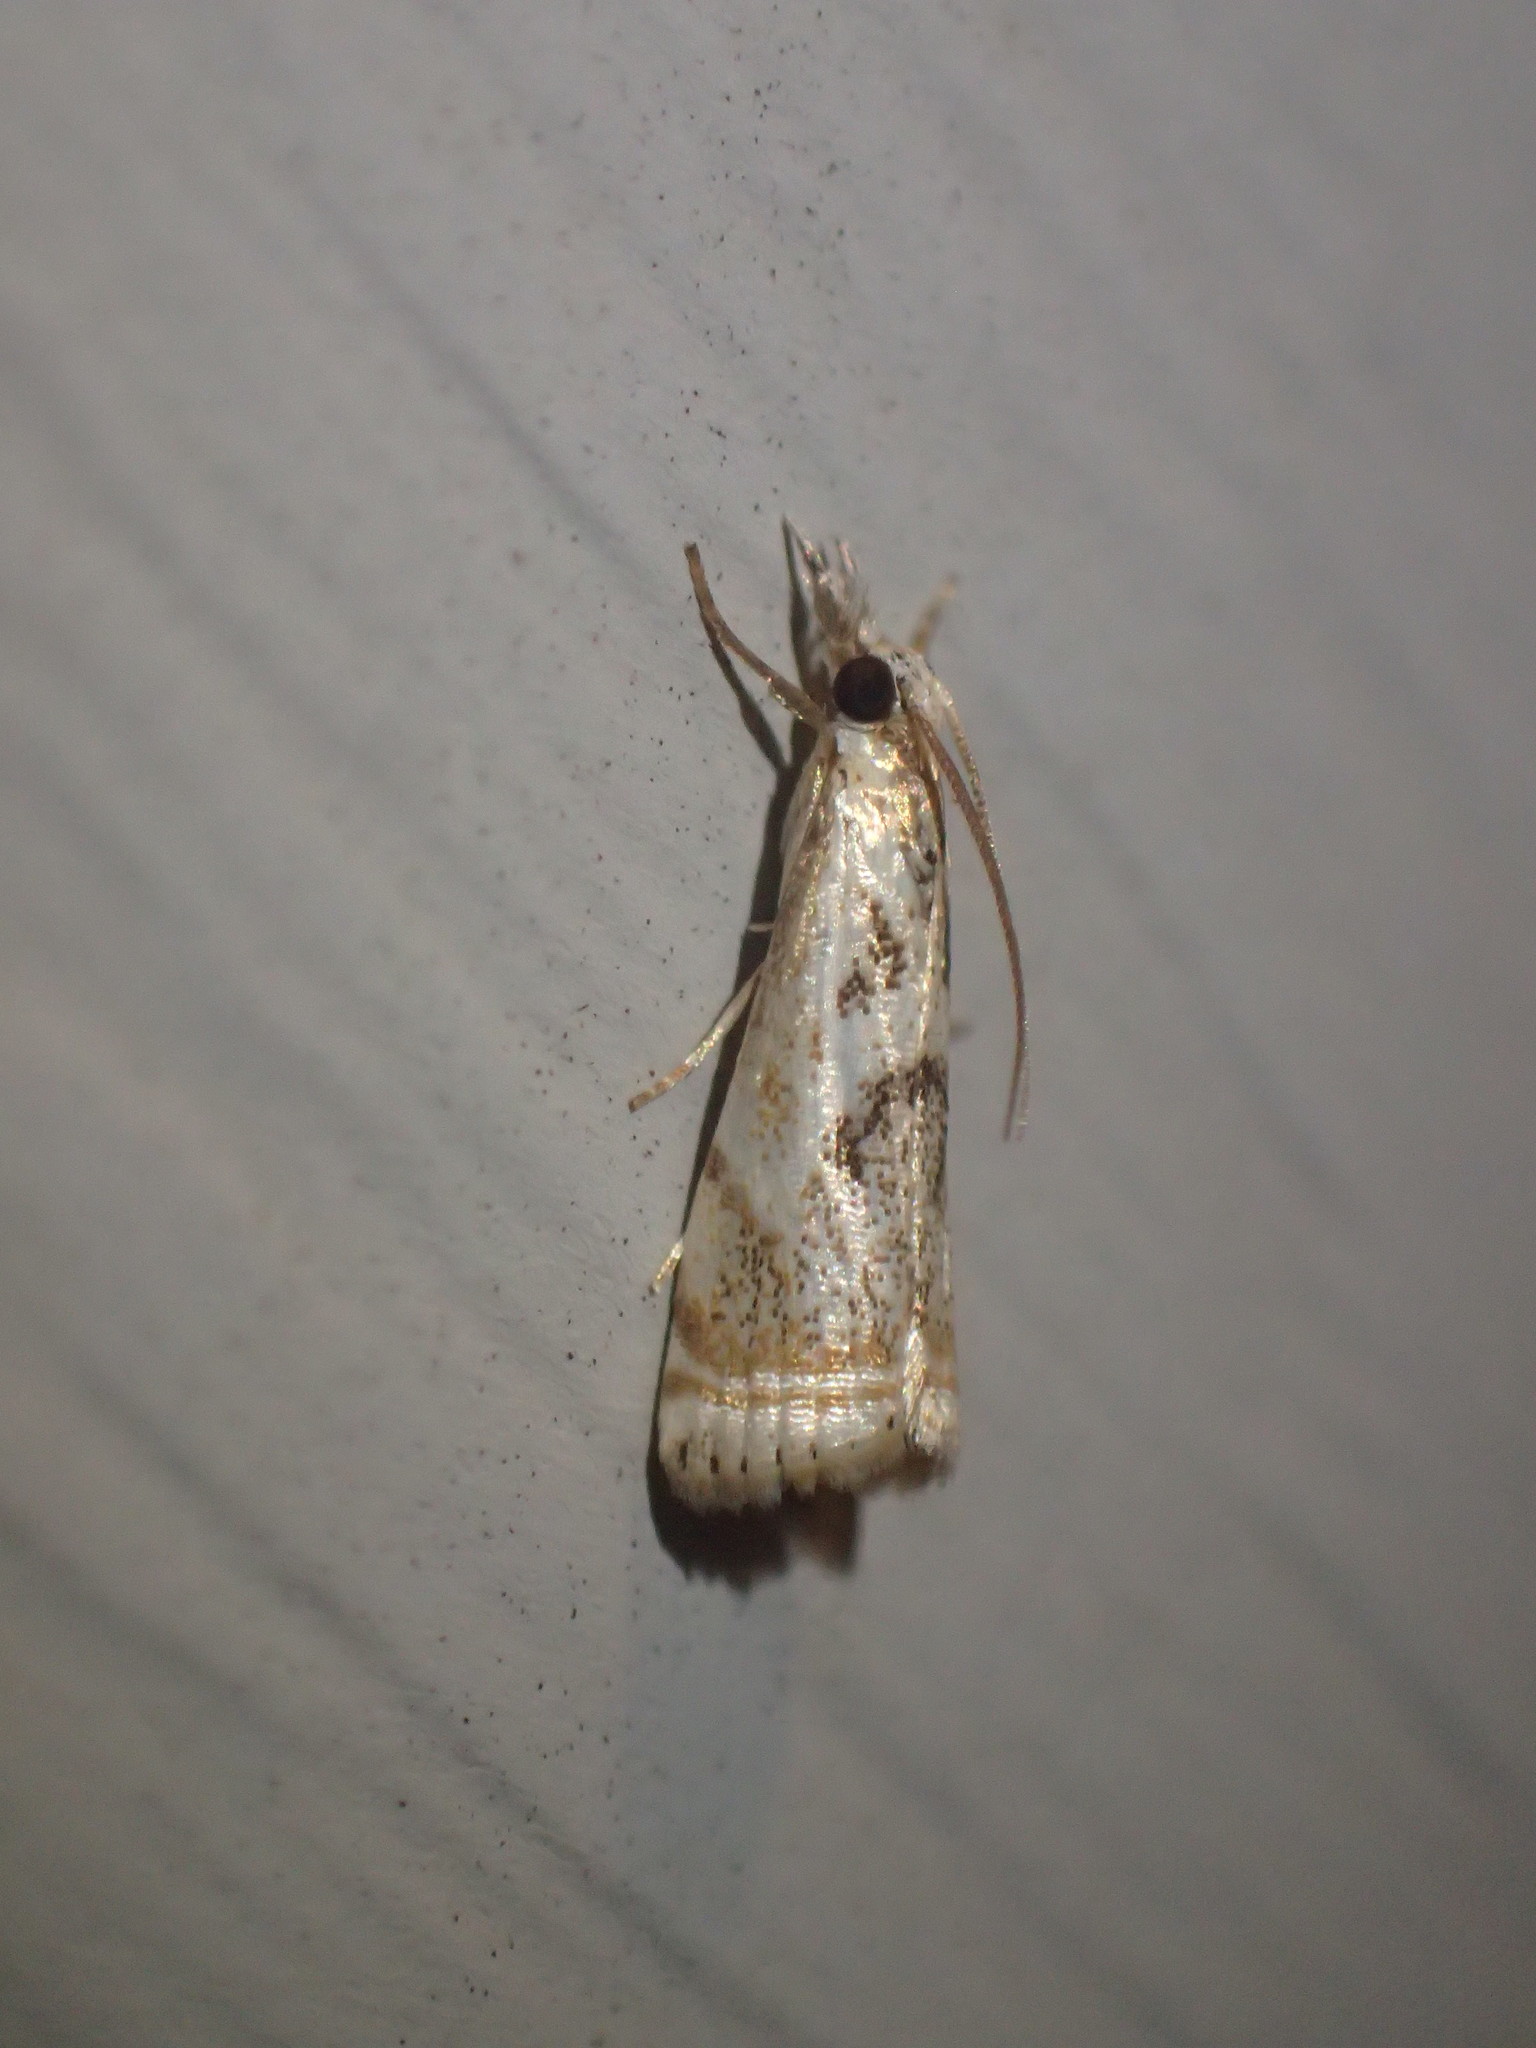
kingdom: Animalia
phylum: Arthropoda
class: Insecta
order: Lepidoptera
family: Crambidae
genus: Microcrambus
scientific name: Microcrambus elegans
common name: Elegant grass-veneer
